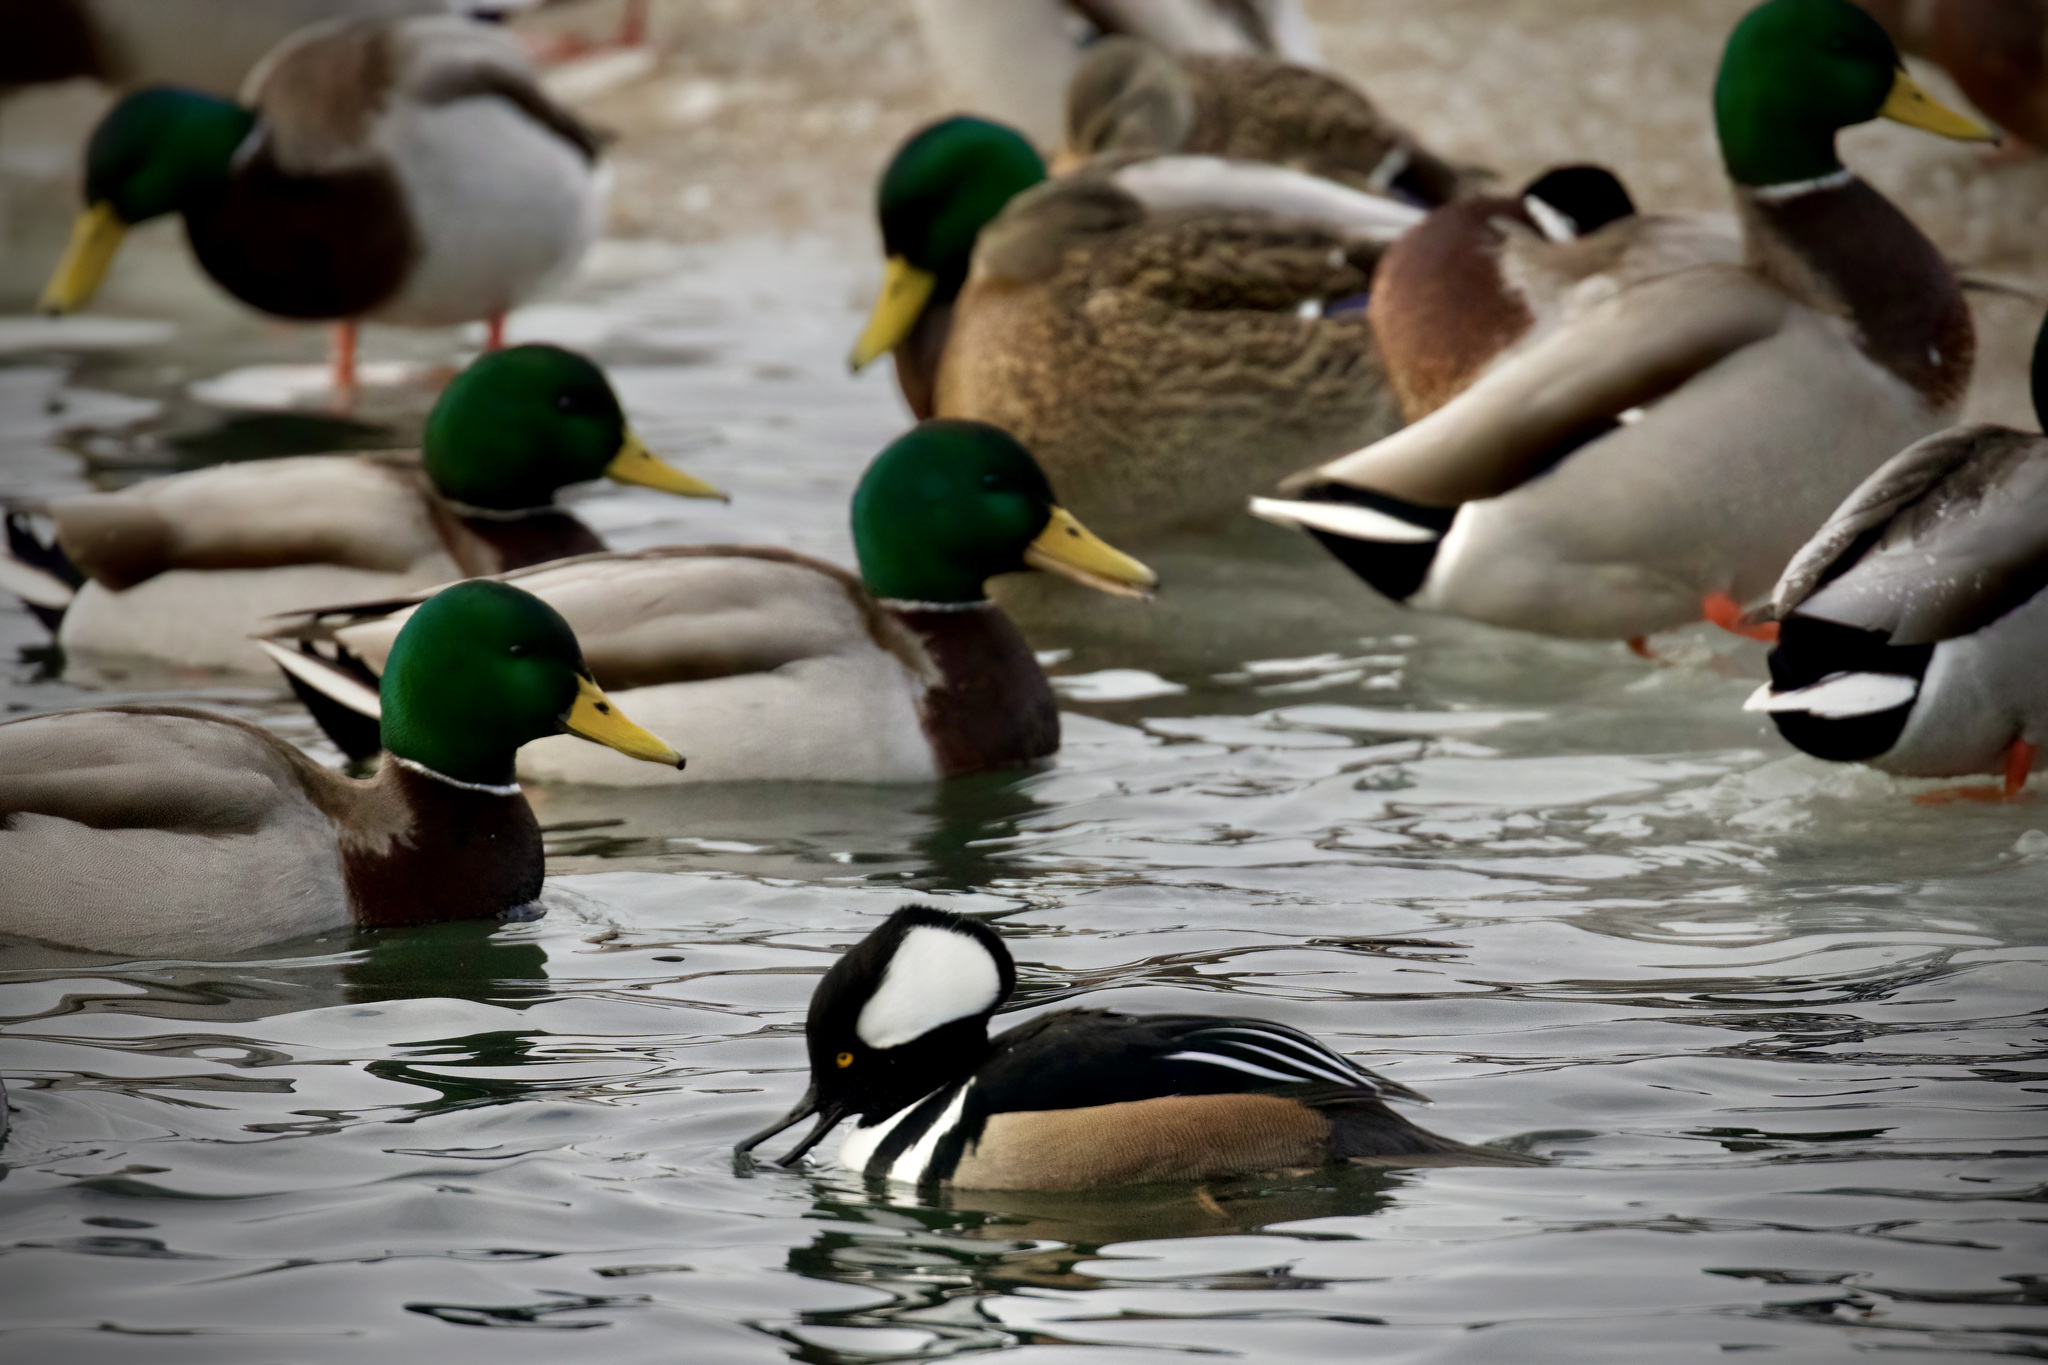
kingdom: Animalia
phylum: Chordata
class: Aves
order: Anseriformes
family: Anatidae
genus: Anas
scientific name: Anas platyrhynchos
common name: Mallard
